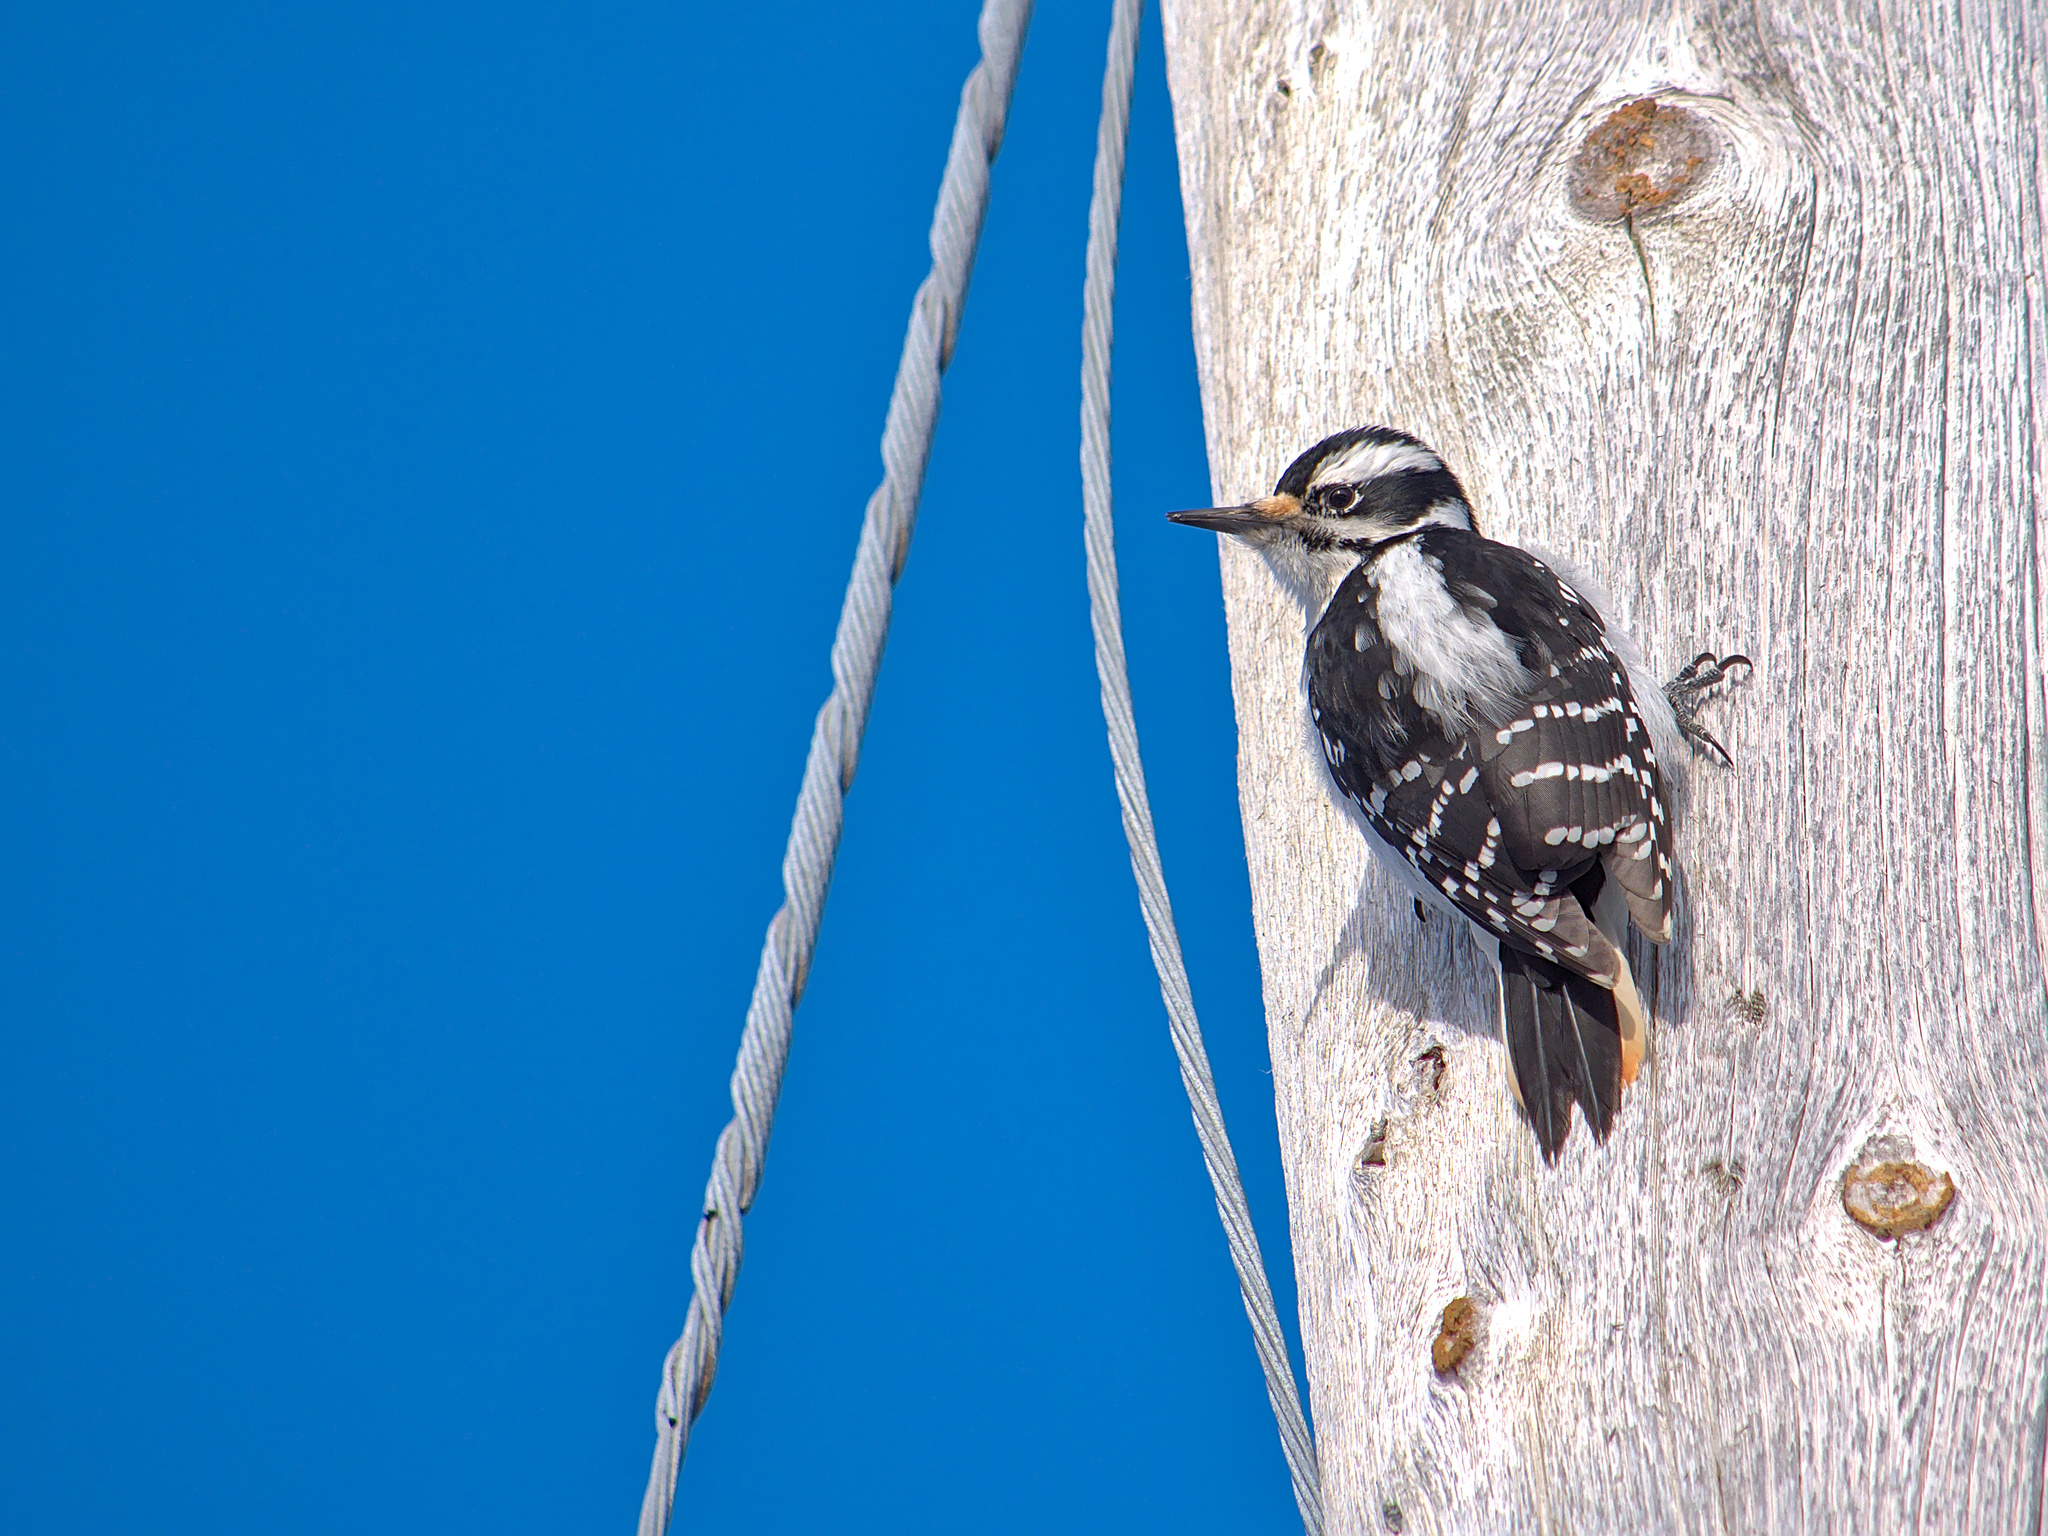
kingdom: Animalia
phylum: Chordata
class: Aves
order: Piciformes
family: Picidae
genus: Leuconotopicus
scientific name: Leuconotopicus villosus
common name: Hairy woodpecker
